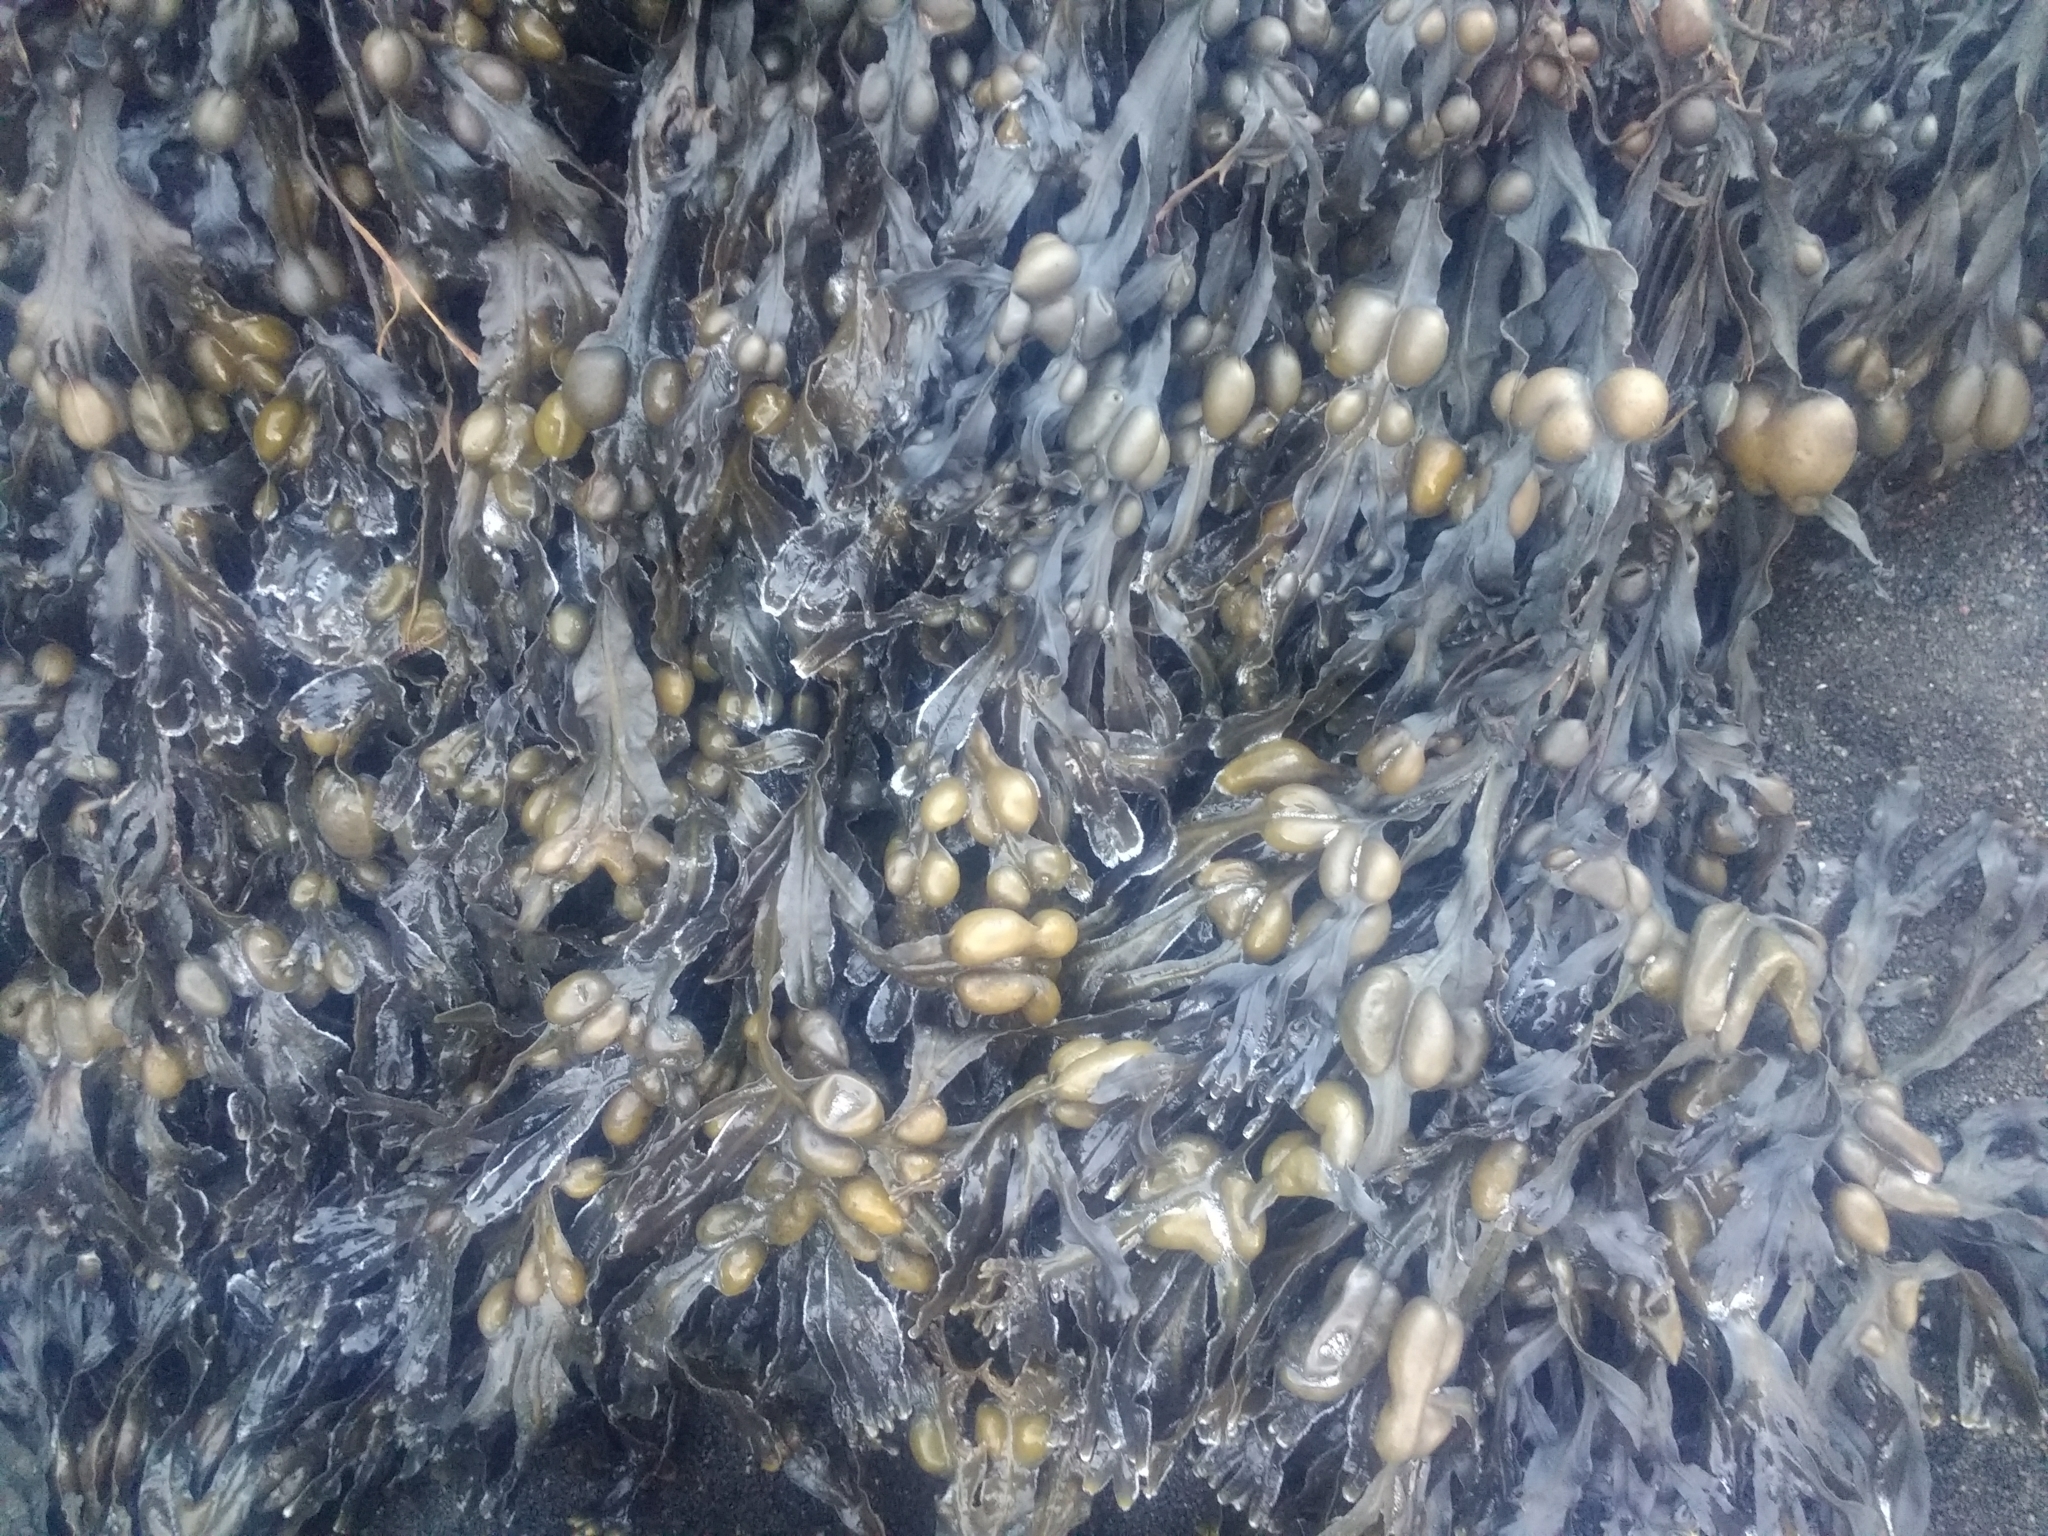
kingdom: Chromista
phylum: Ochrophyta
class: Phaeophyceae
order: Fucales
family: Fucaceae
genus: Fucus
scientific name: Fucus vesiculosus
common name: Bladder wrack
